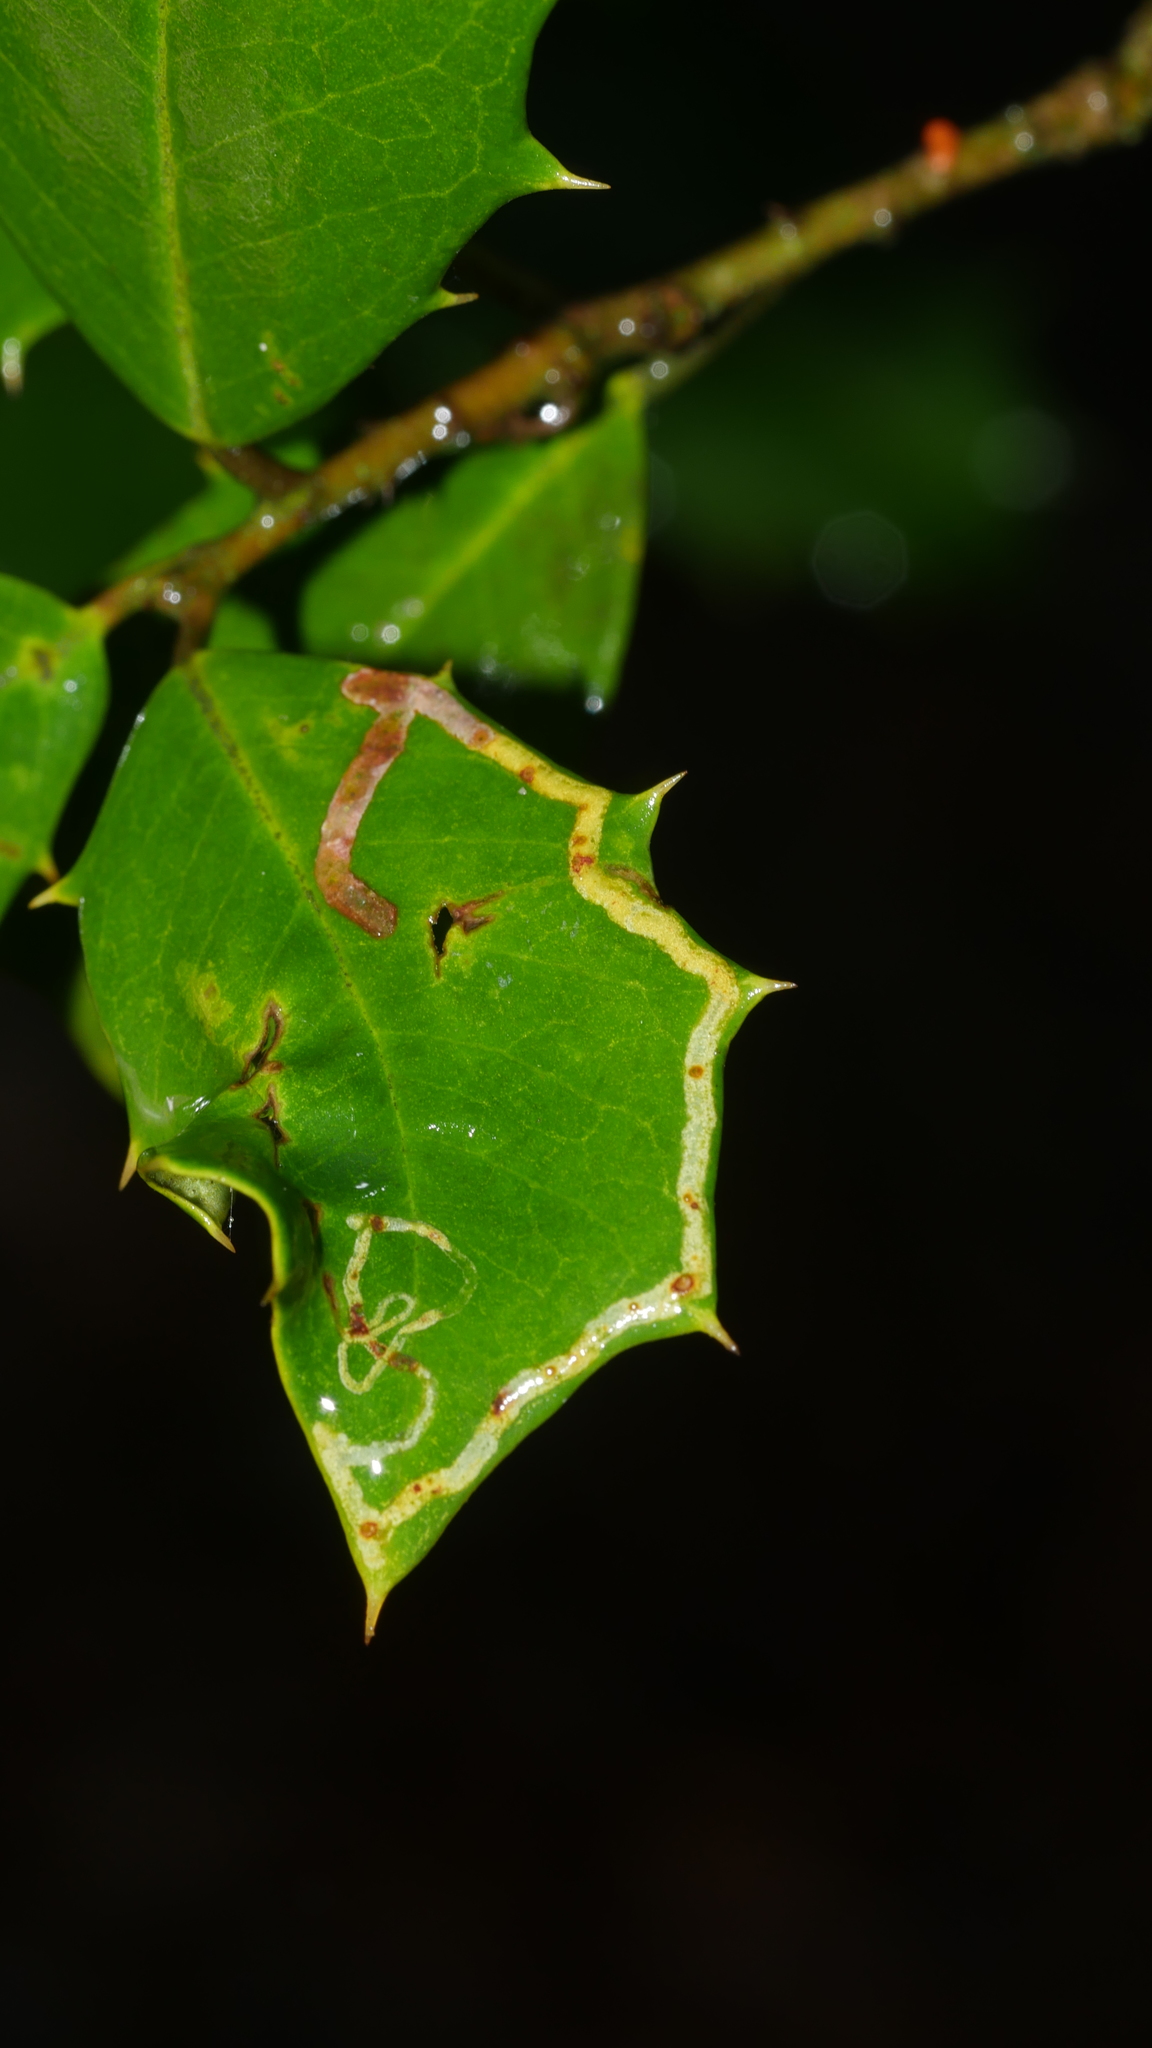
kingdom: Animalia
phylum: Arthropoda
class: Insecta
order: Diptera
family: Agromyzidae
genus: Phytomyza
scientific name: Phytomyza opacae
